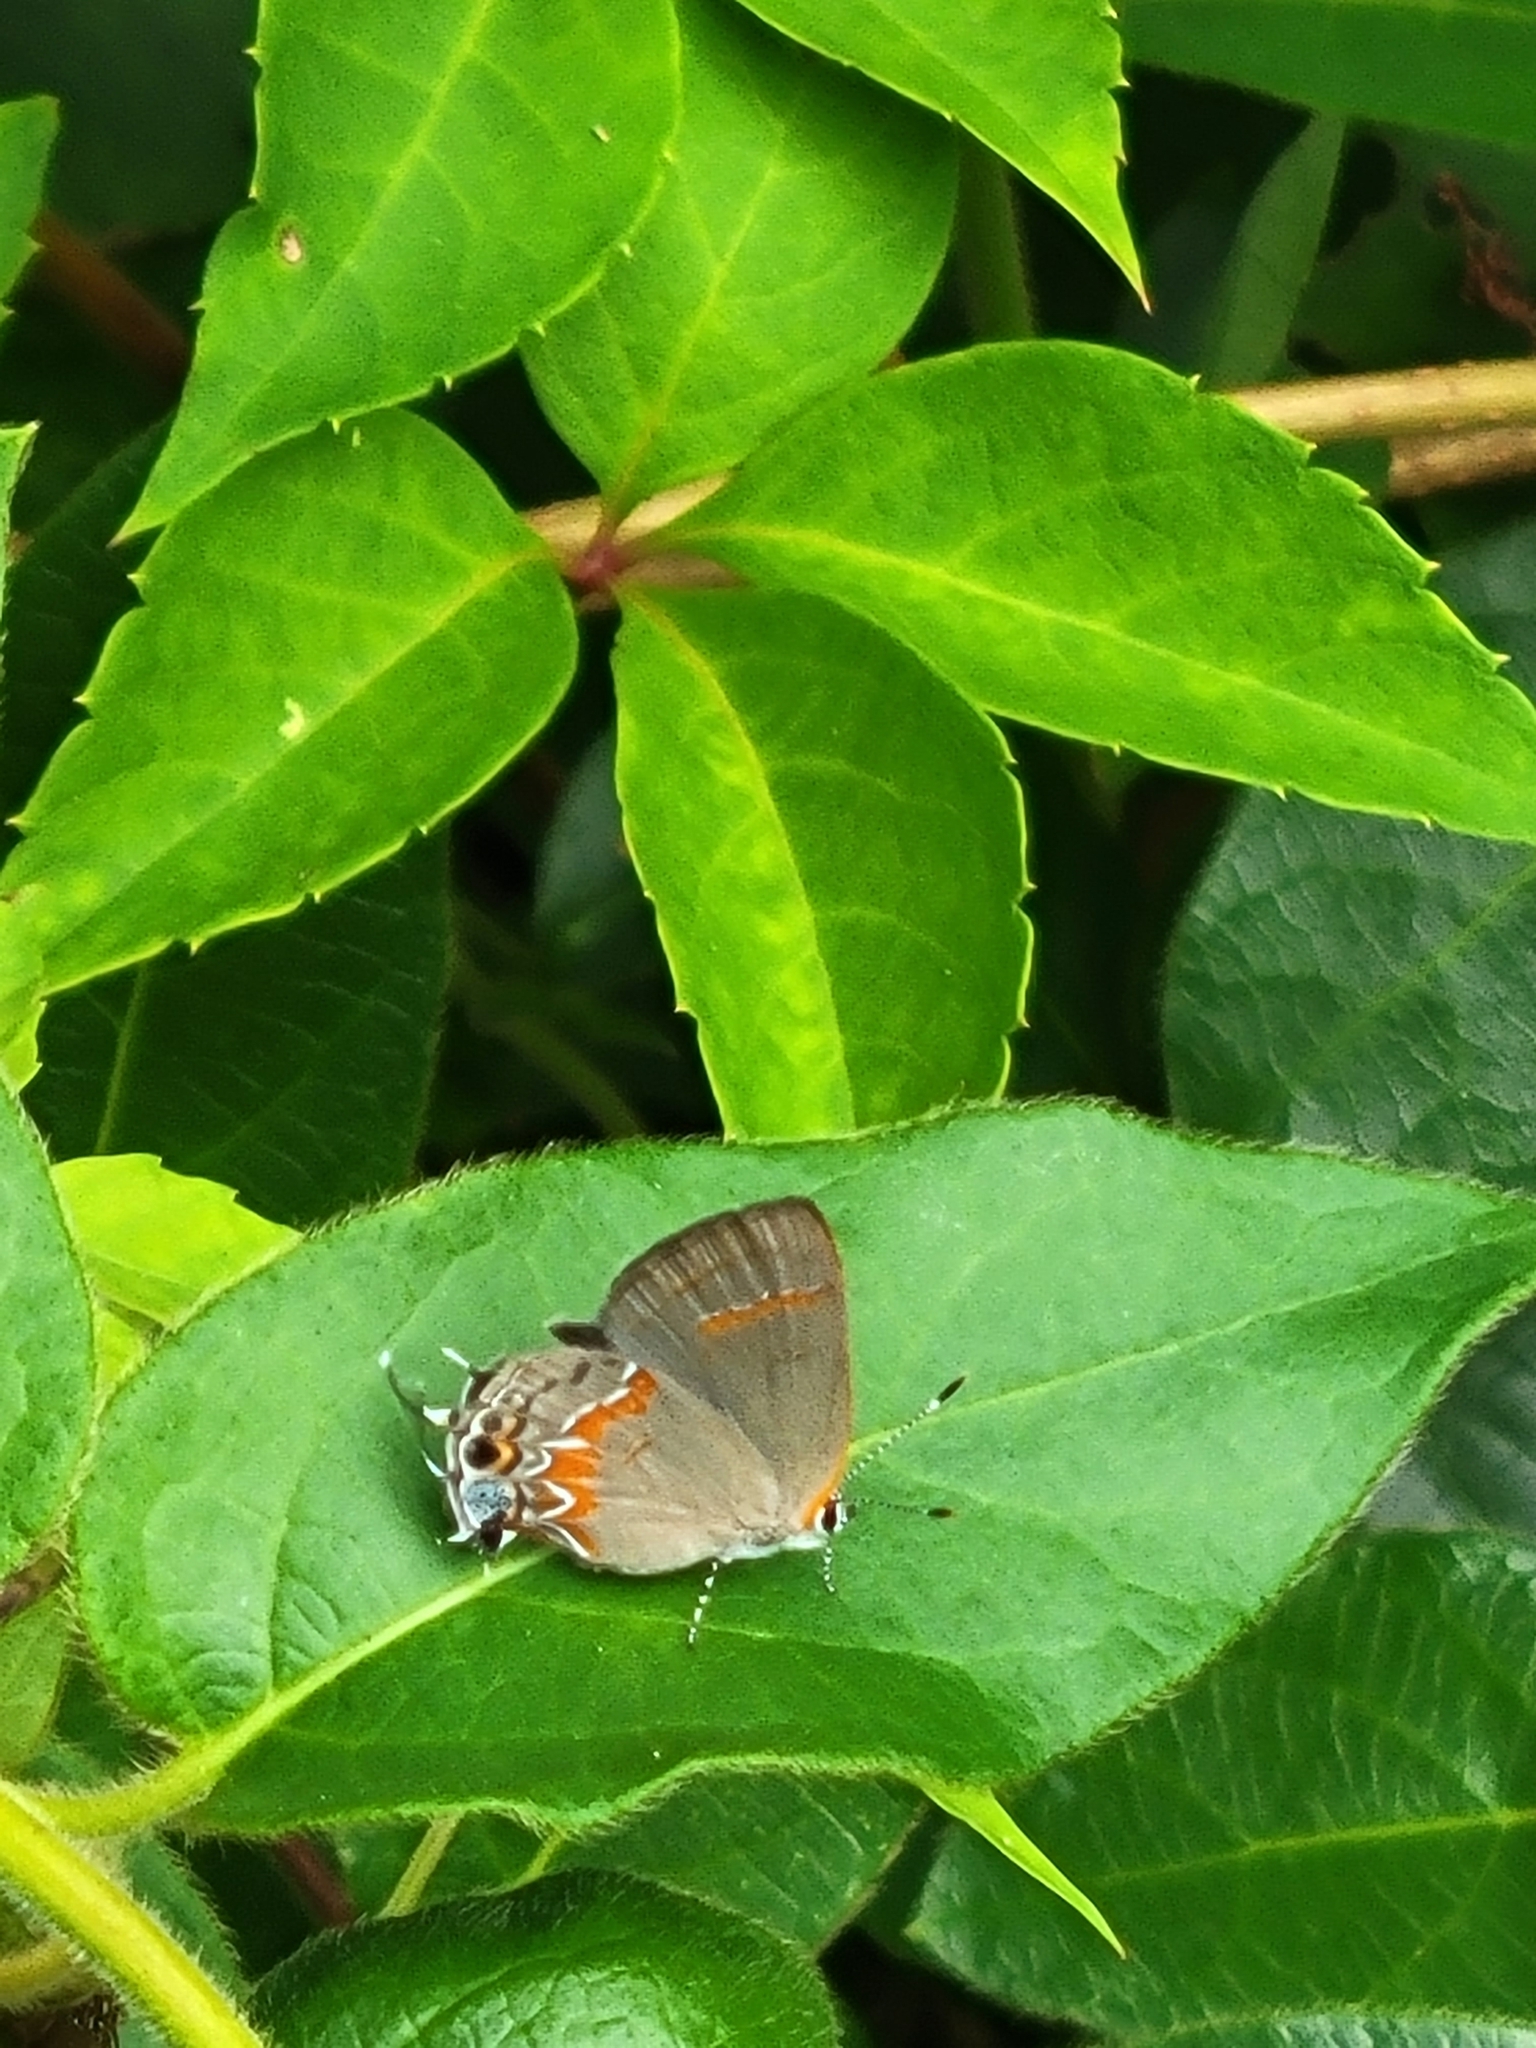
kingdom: Animalia
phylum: Arthropoda
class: Insecta
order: Lepidoptera
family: Lycaenidae
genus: Calycopis
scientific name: Calycopis cecrops
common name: Red-banded hairstreak
